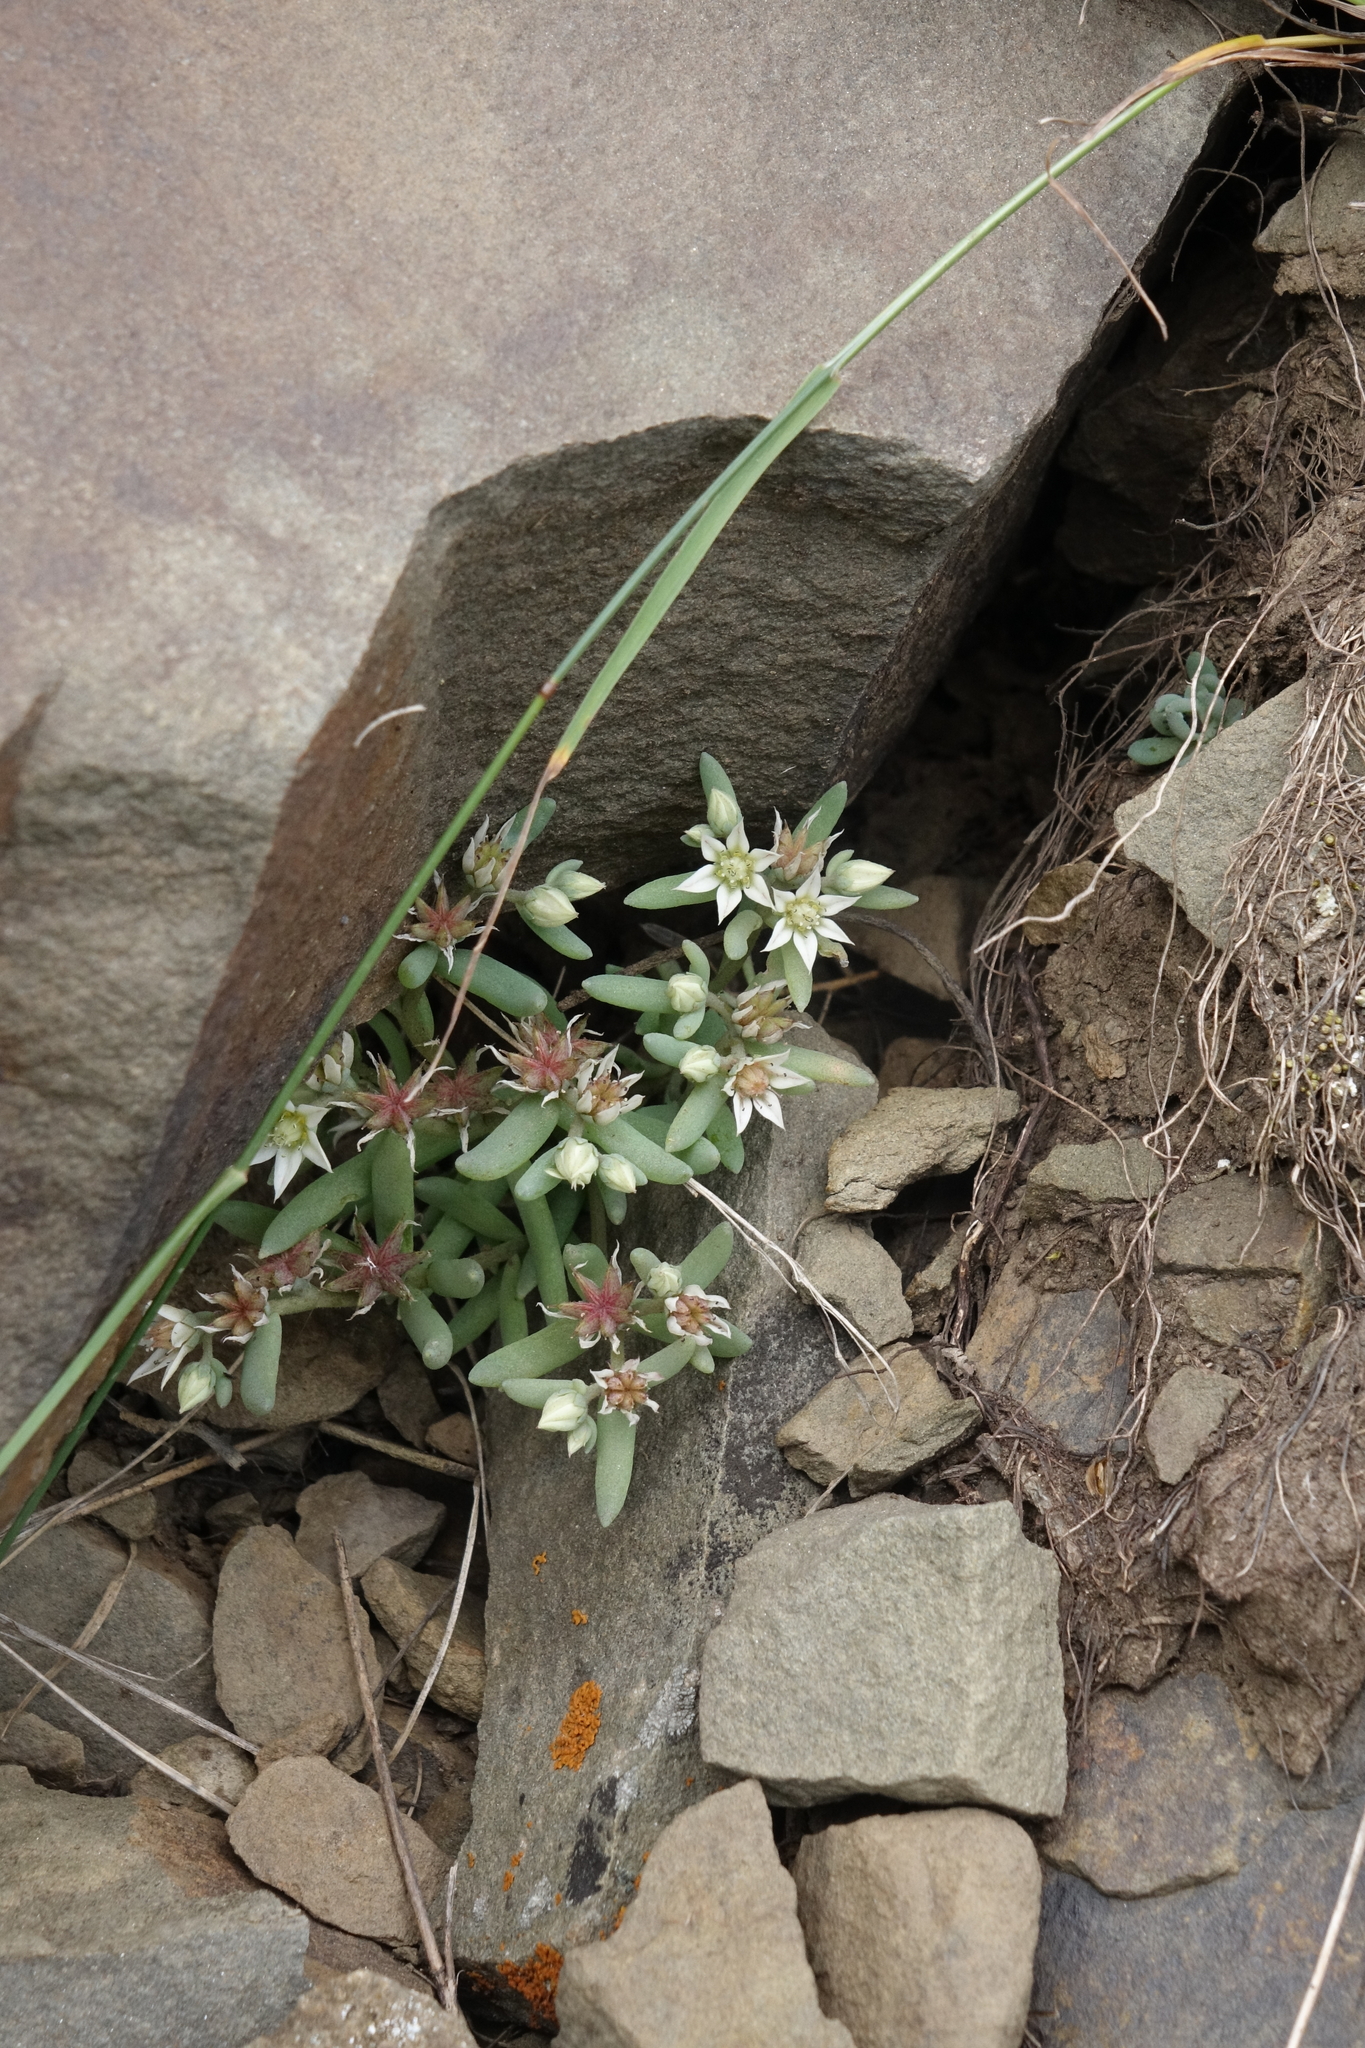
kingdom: Plantae
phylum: Tracheophyta
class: Magnoliopsida
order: Saxifragales
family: Crassulaceae
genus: Sedum
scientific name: Sedum hispanicum
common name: Spanish stonecrop
